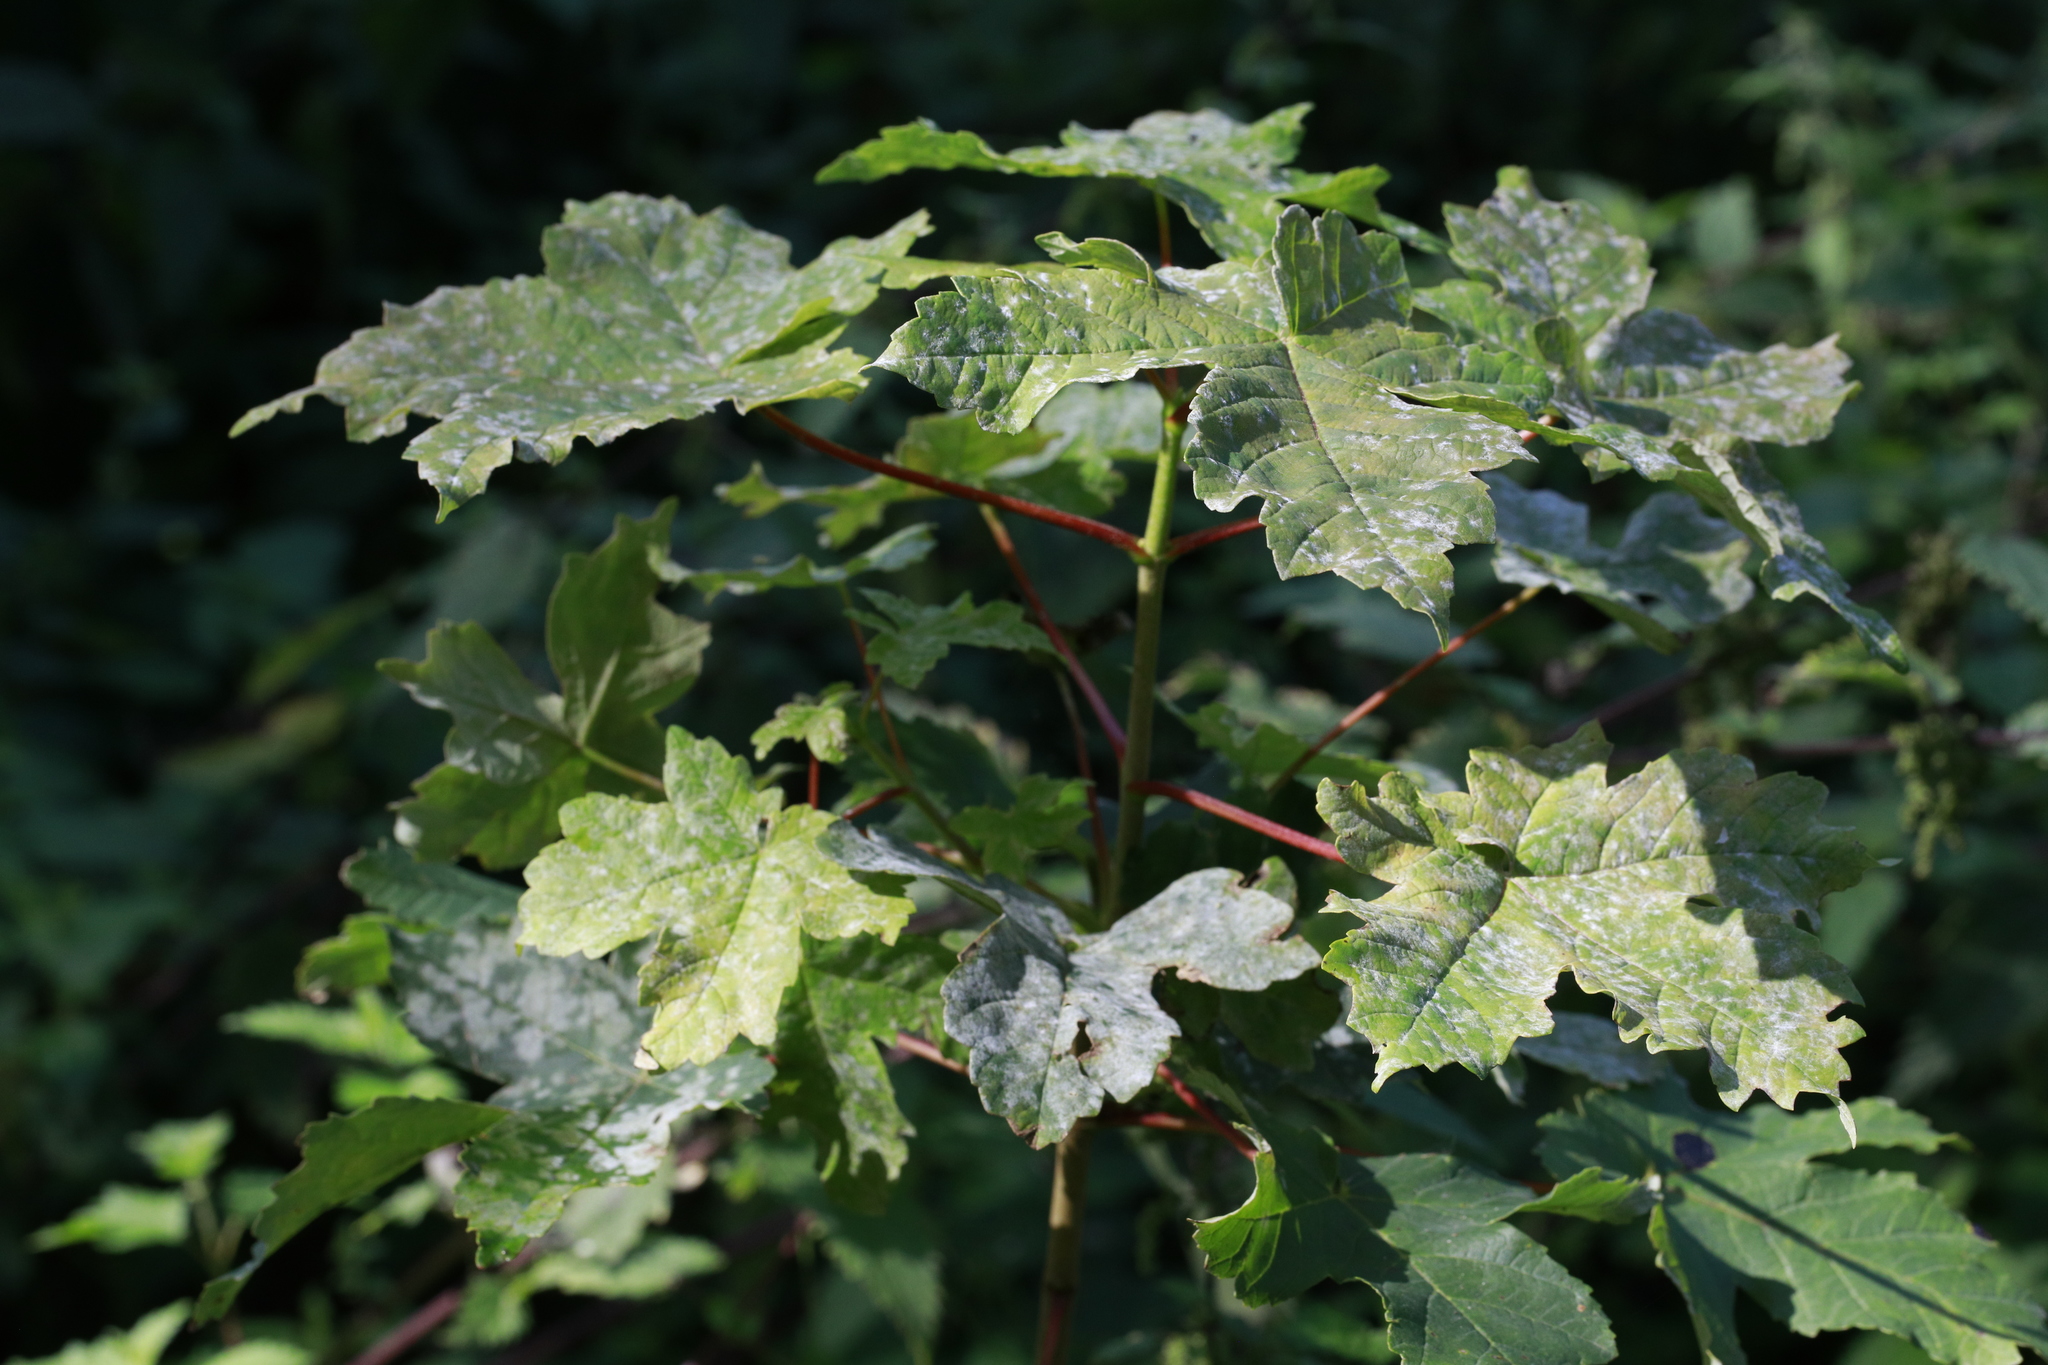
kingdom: Fungi
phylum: Ascomycota
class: Leotiomycetes
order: Helotiales
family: Erysiphaceae
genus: Sawadaea
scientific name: Sawadaea bicornis
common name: Maple mildew
